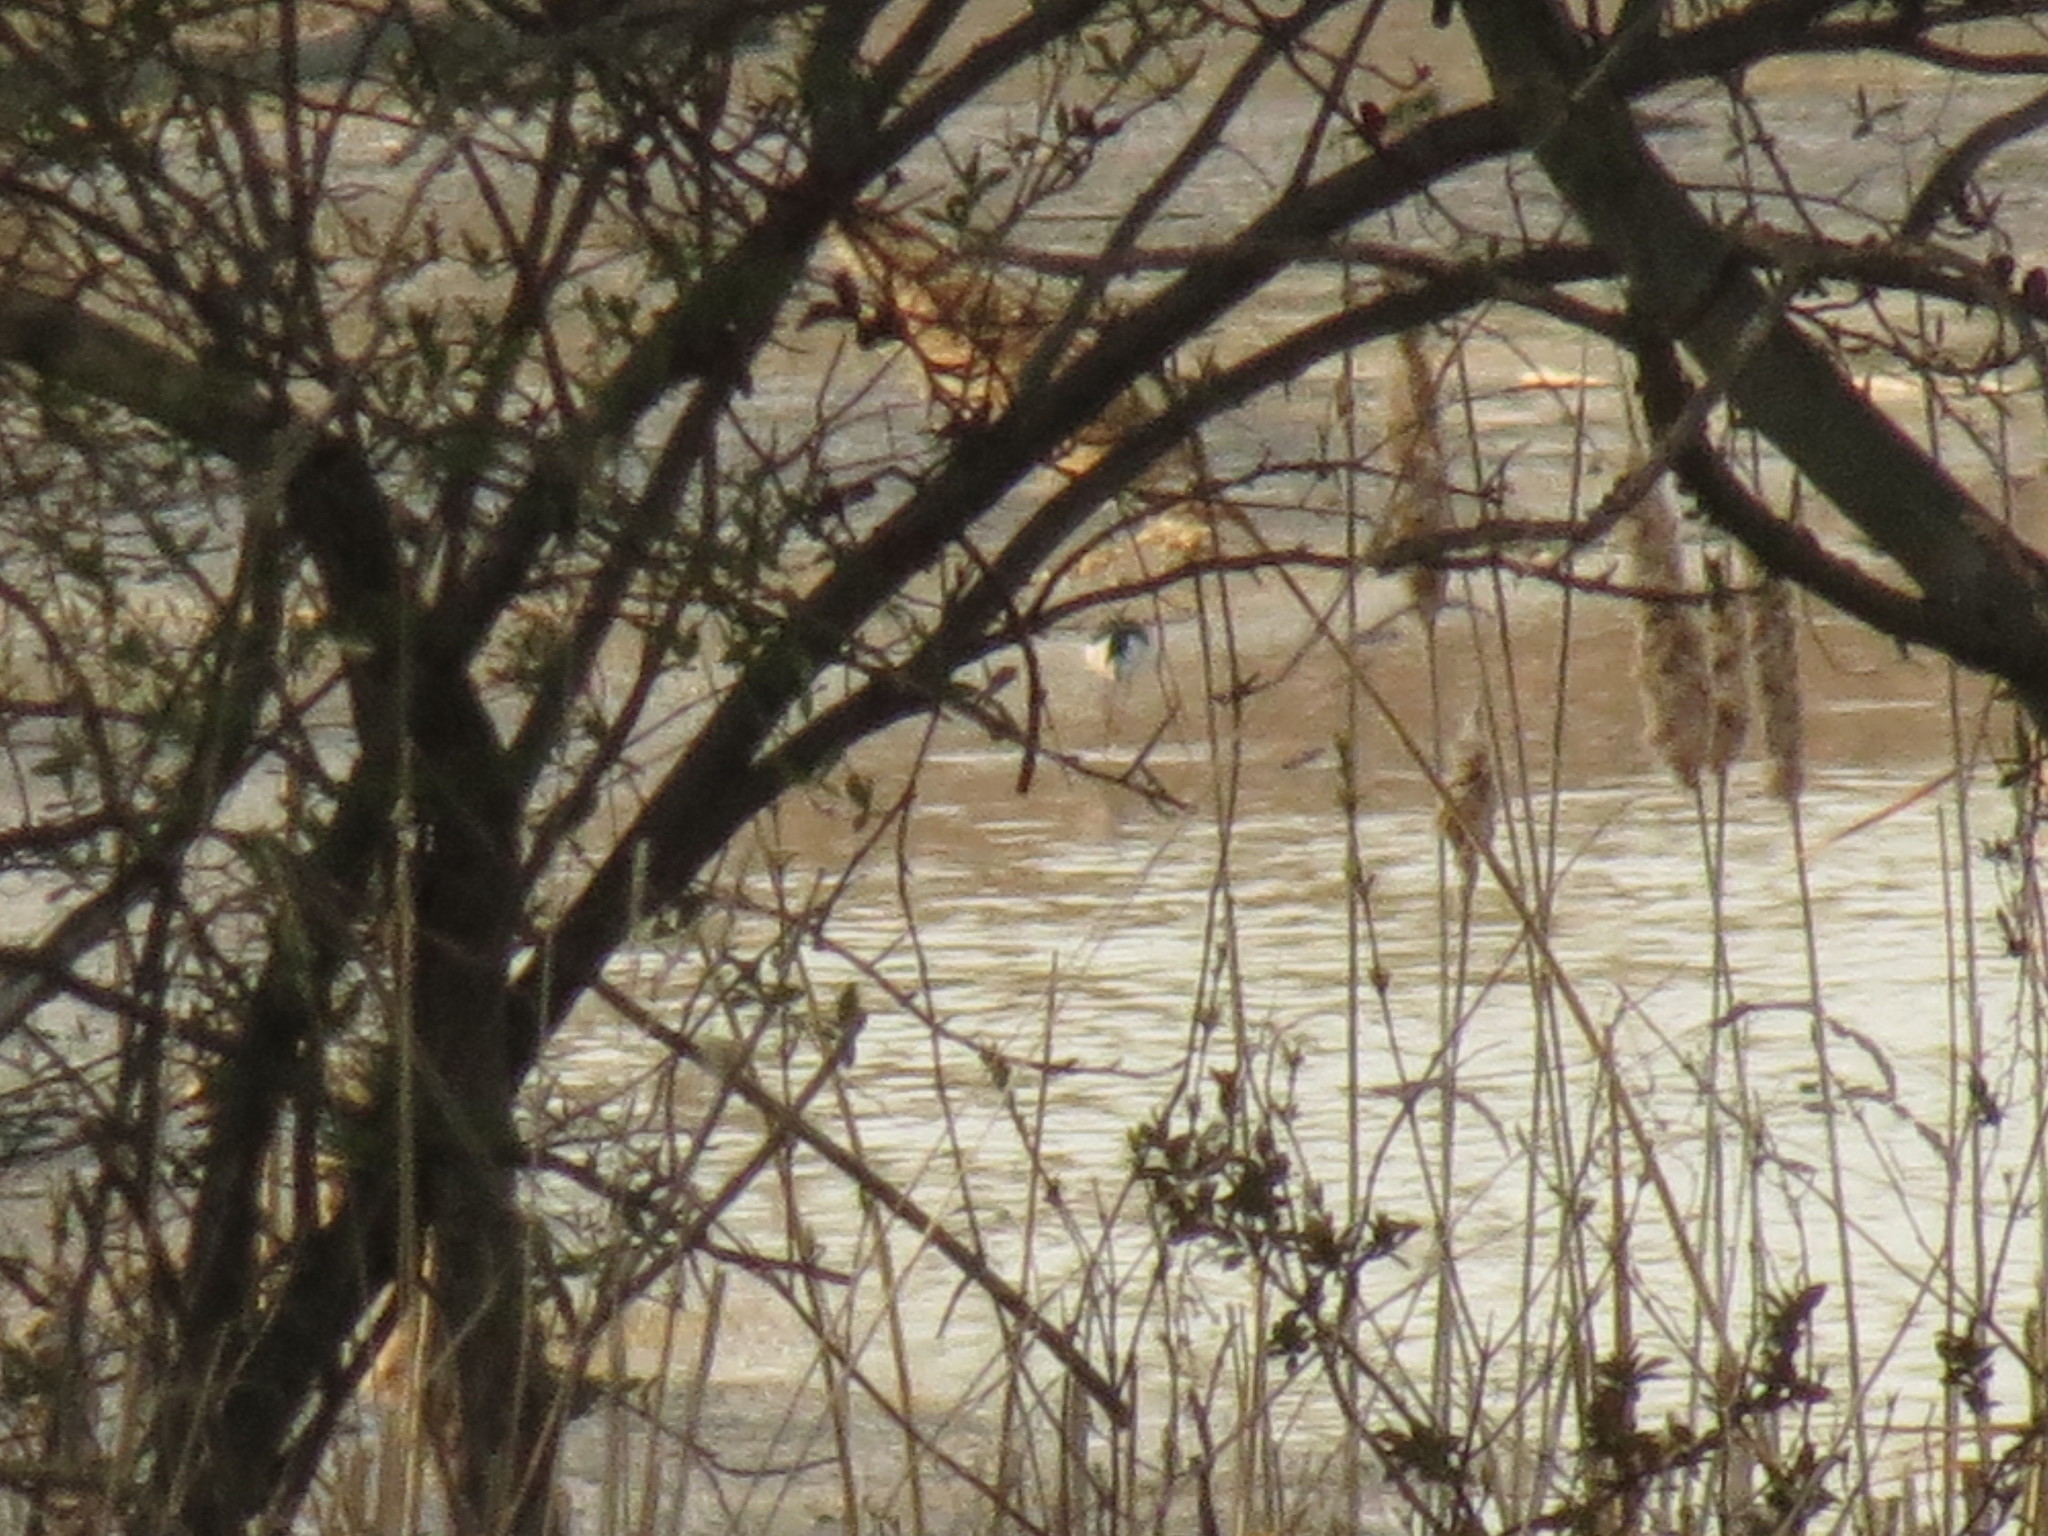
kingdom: Animalia
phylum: Chordata
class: Aves
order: Charadriiformes
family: Recurvirostridae
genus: Himantopus
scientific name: Himantopus mexicanus
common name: Black-necked stilt
